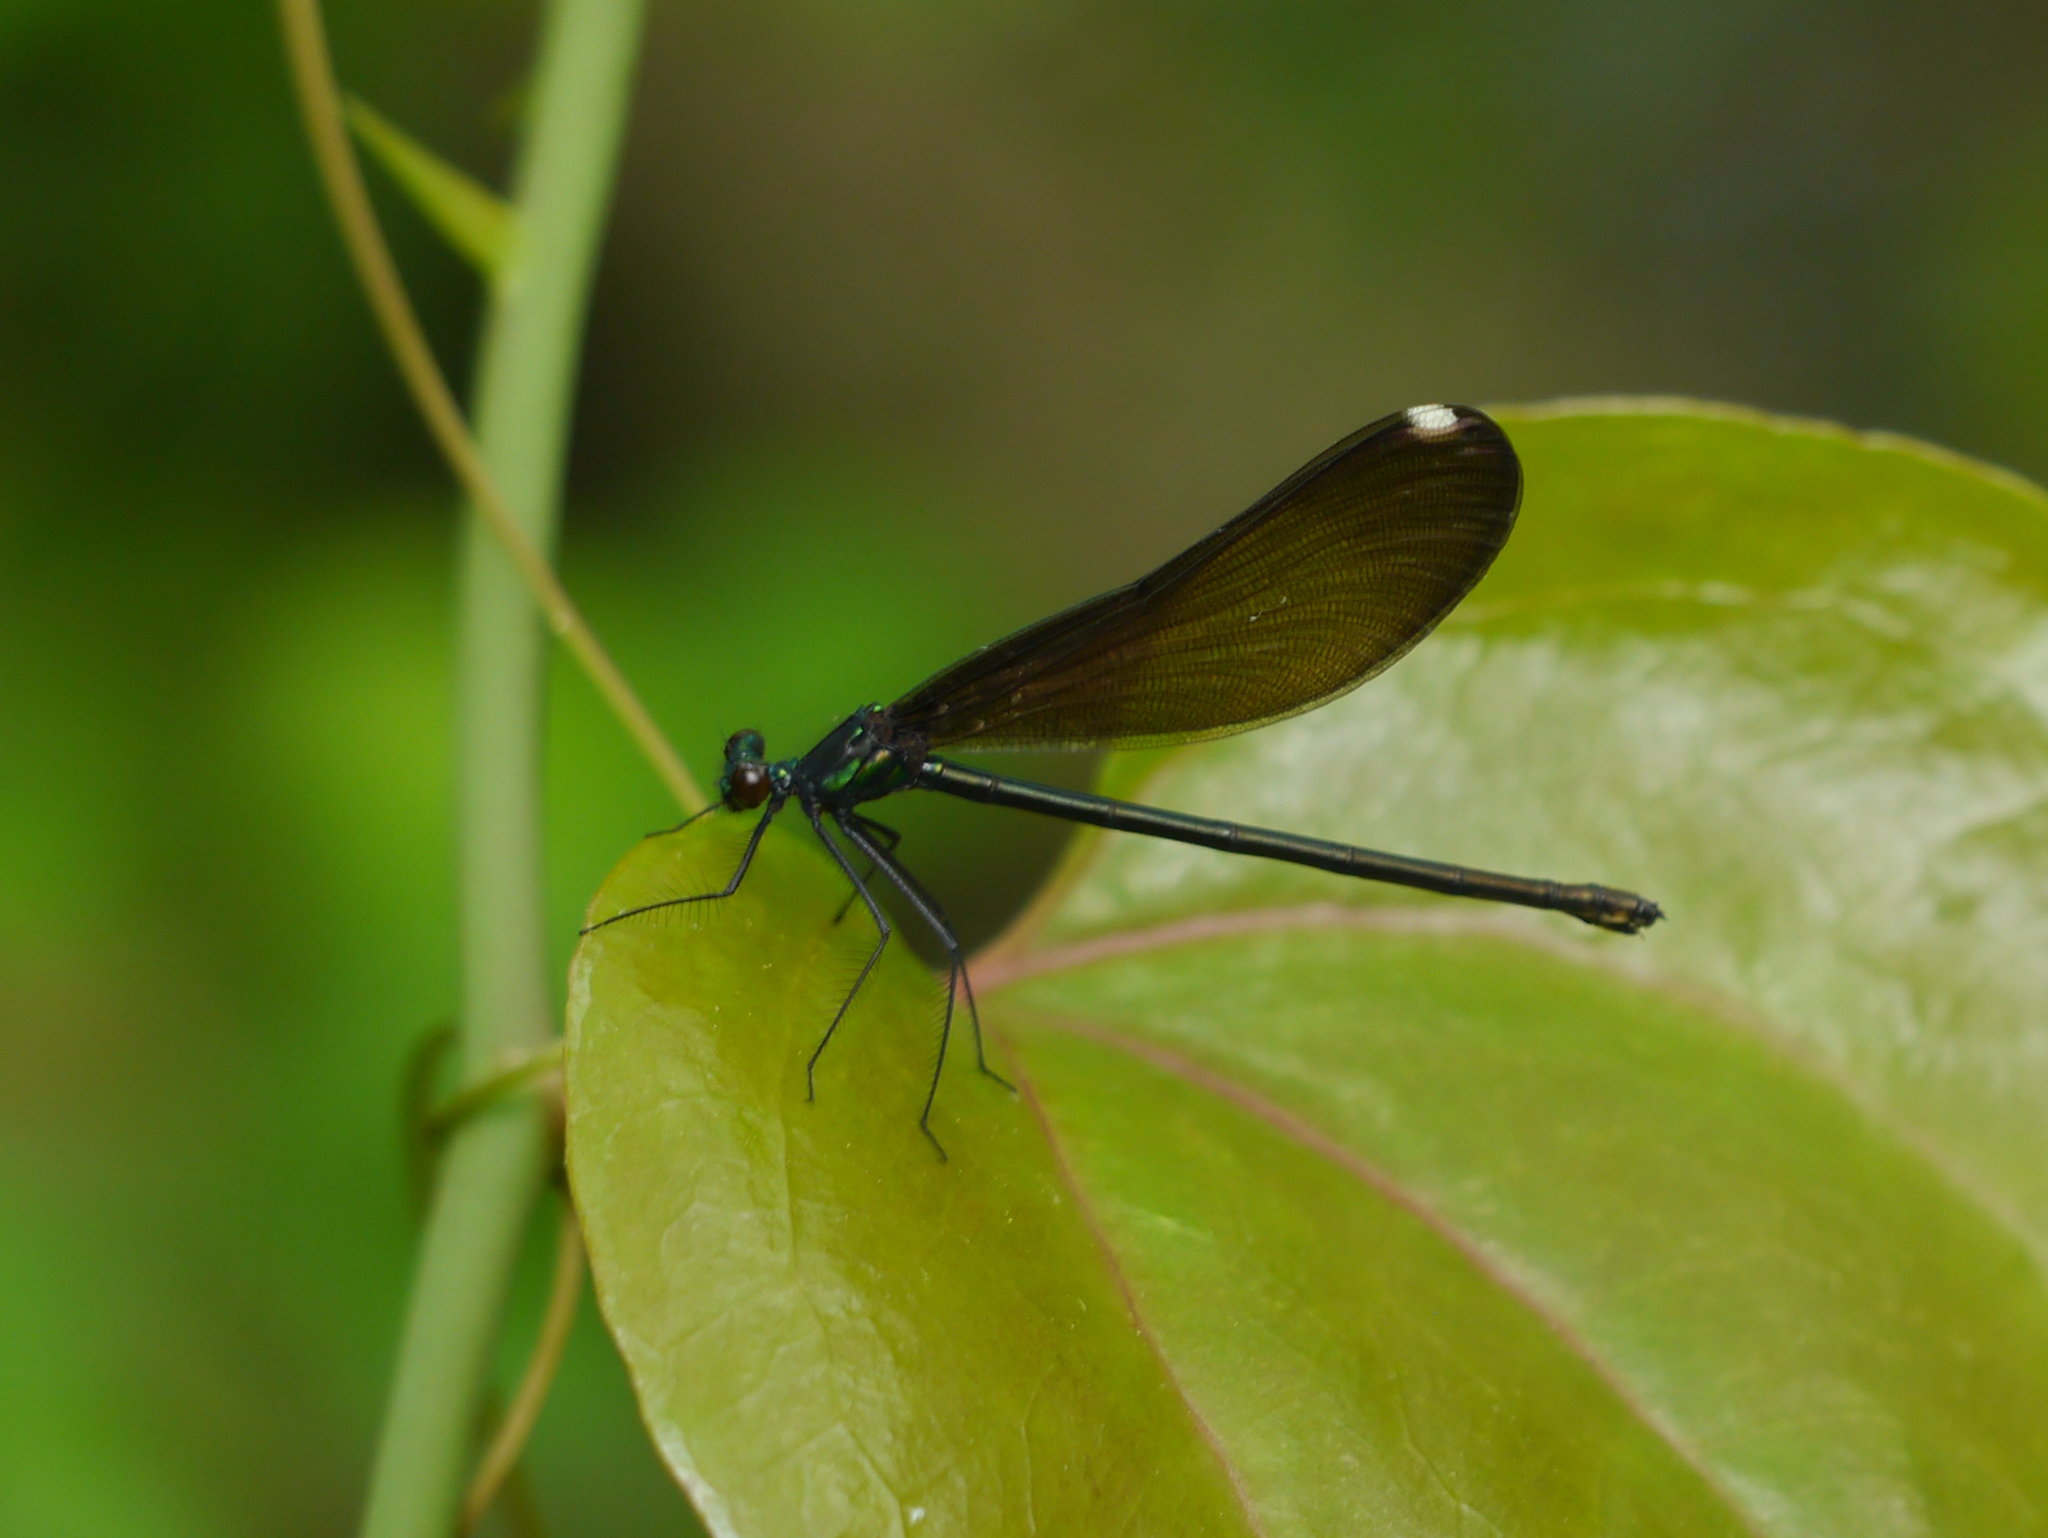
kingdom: Animalia
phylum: Arthropoda
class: Insecta
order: Odonata
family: Calopterygidae
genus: Calopteryx
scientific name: Calopteryx maculata
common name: Ebony jewelwing
